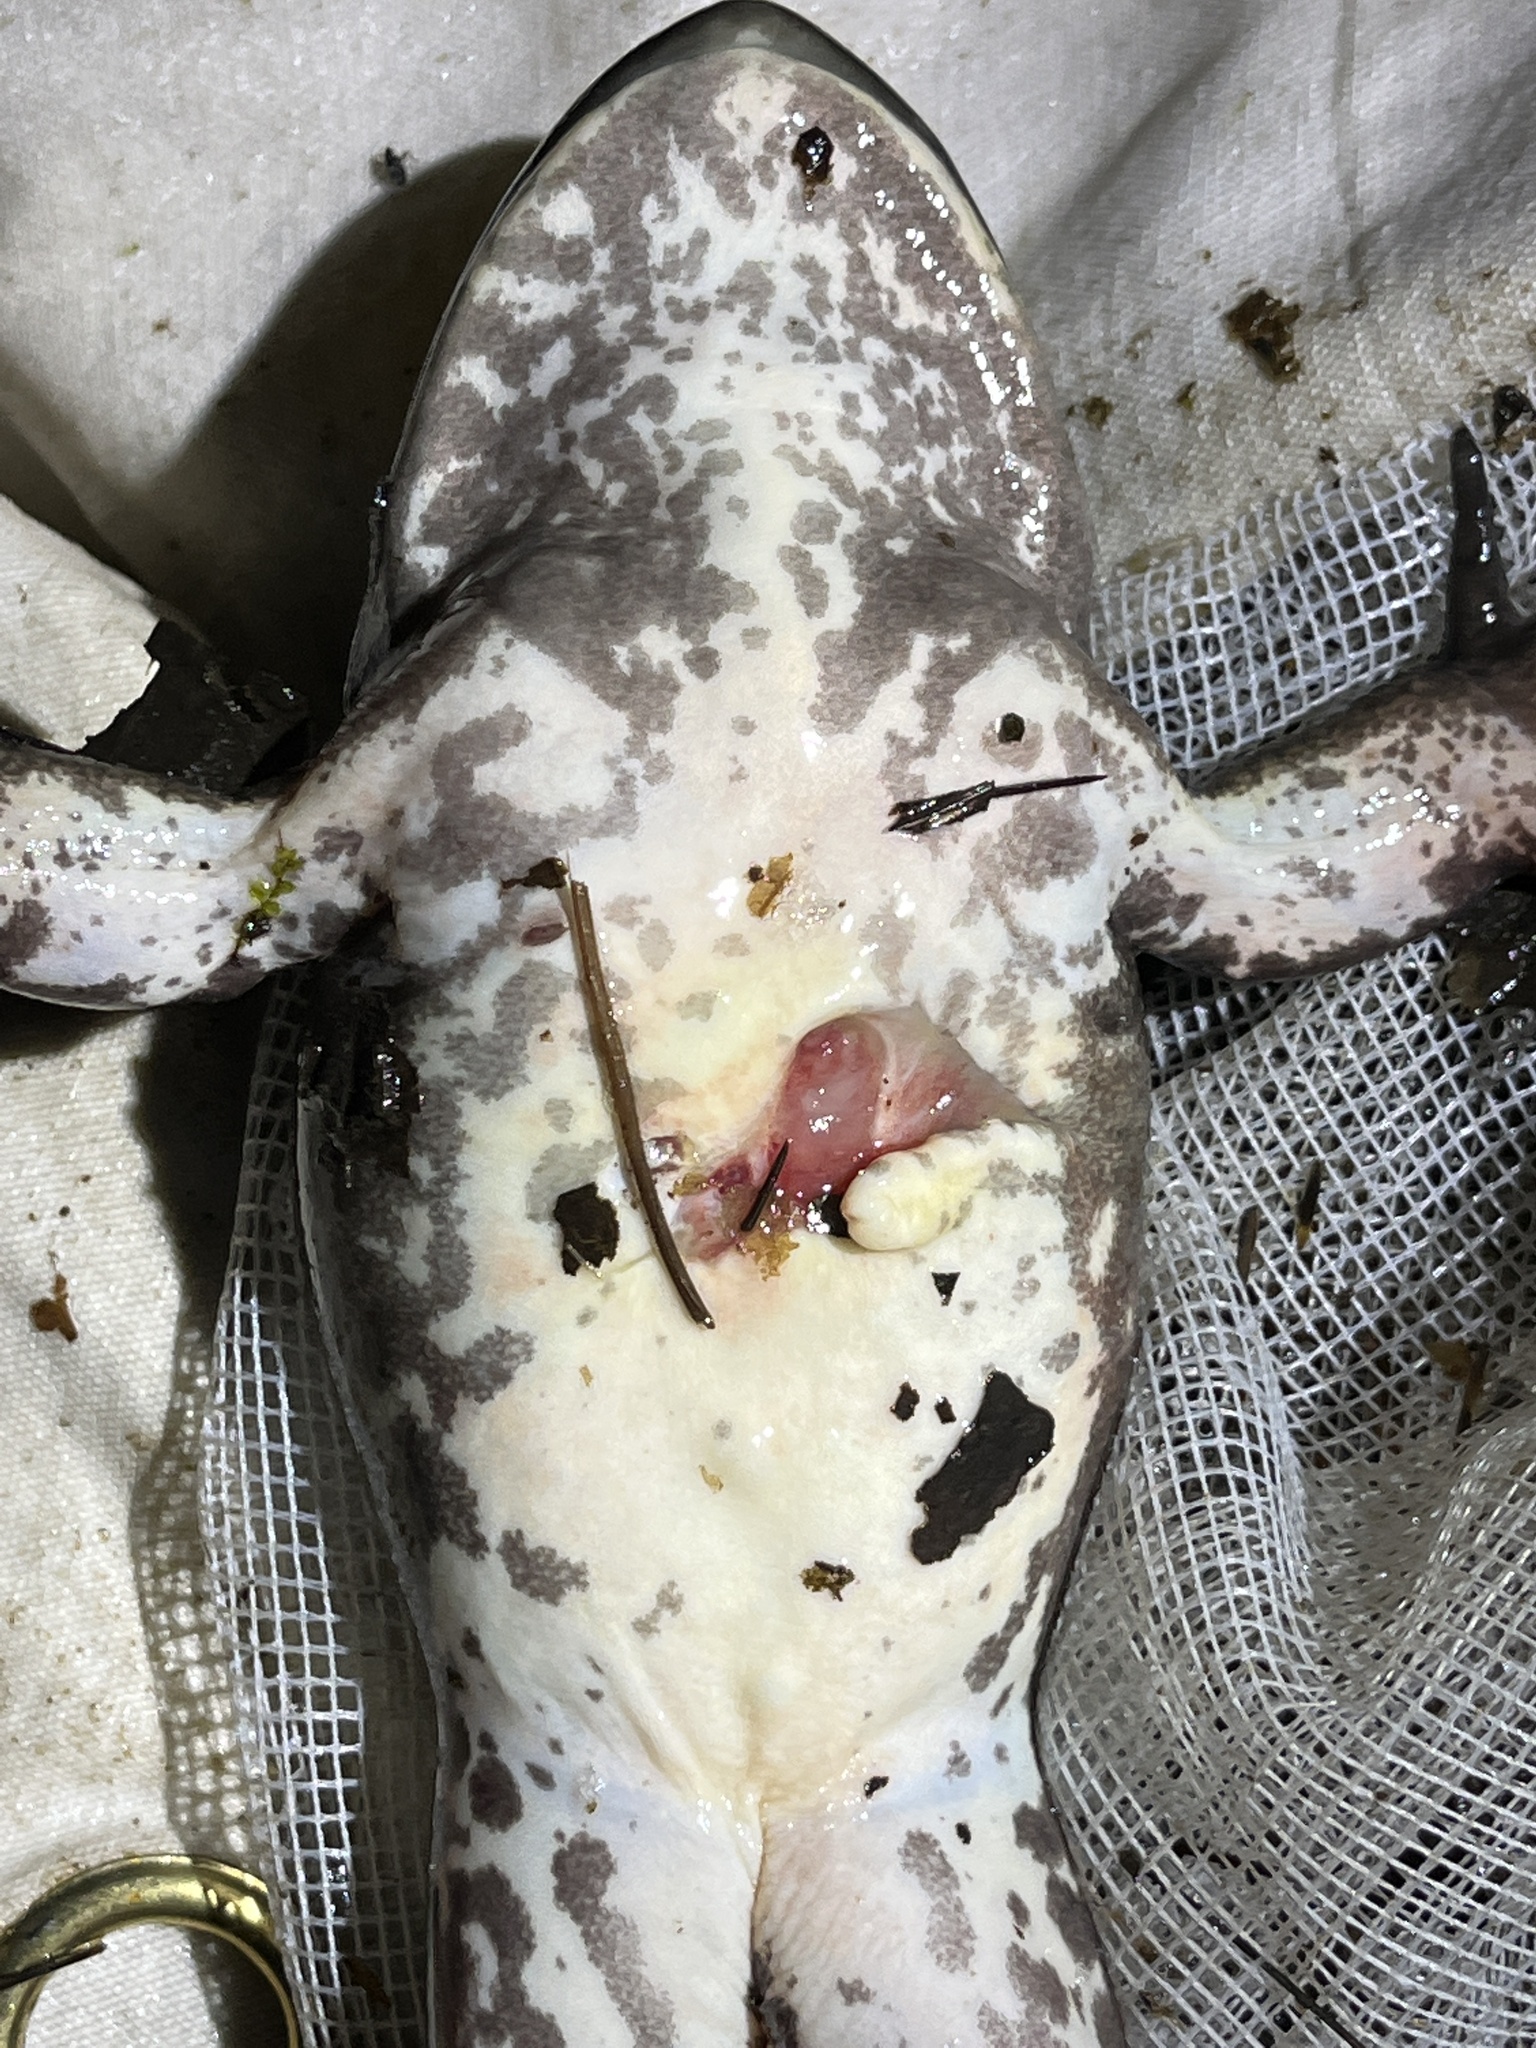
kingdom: Animalia
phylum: Chordata
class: Amphibia
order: Anura
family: Ranidae
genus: Lithobates
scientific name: Lithobates catesbeianus
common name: American bullfrog
